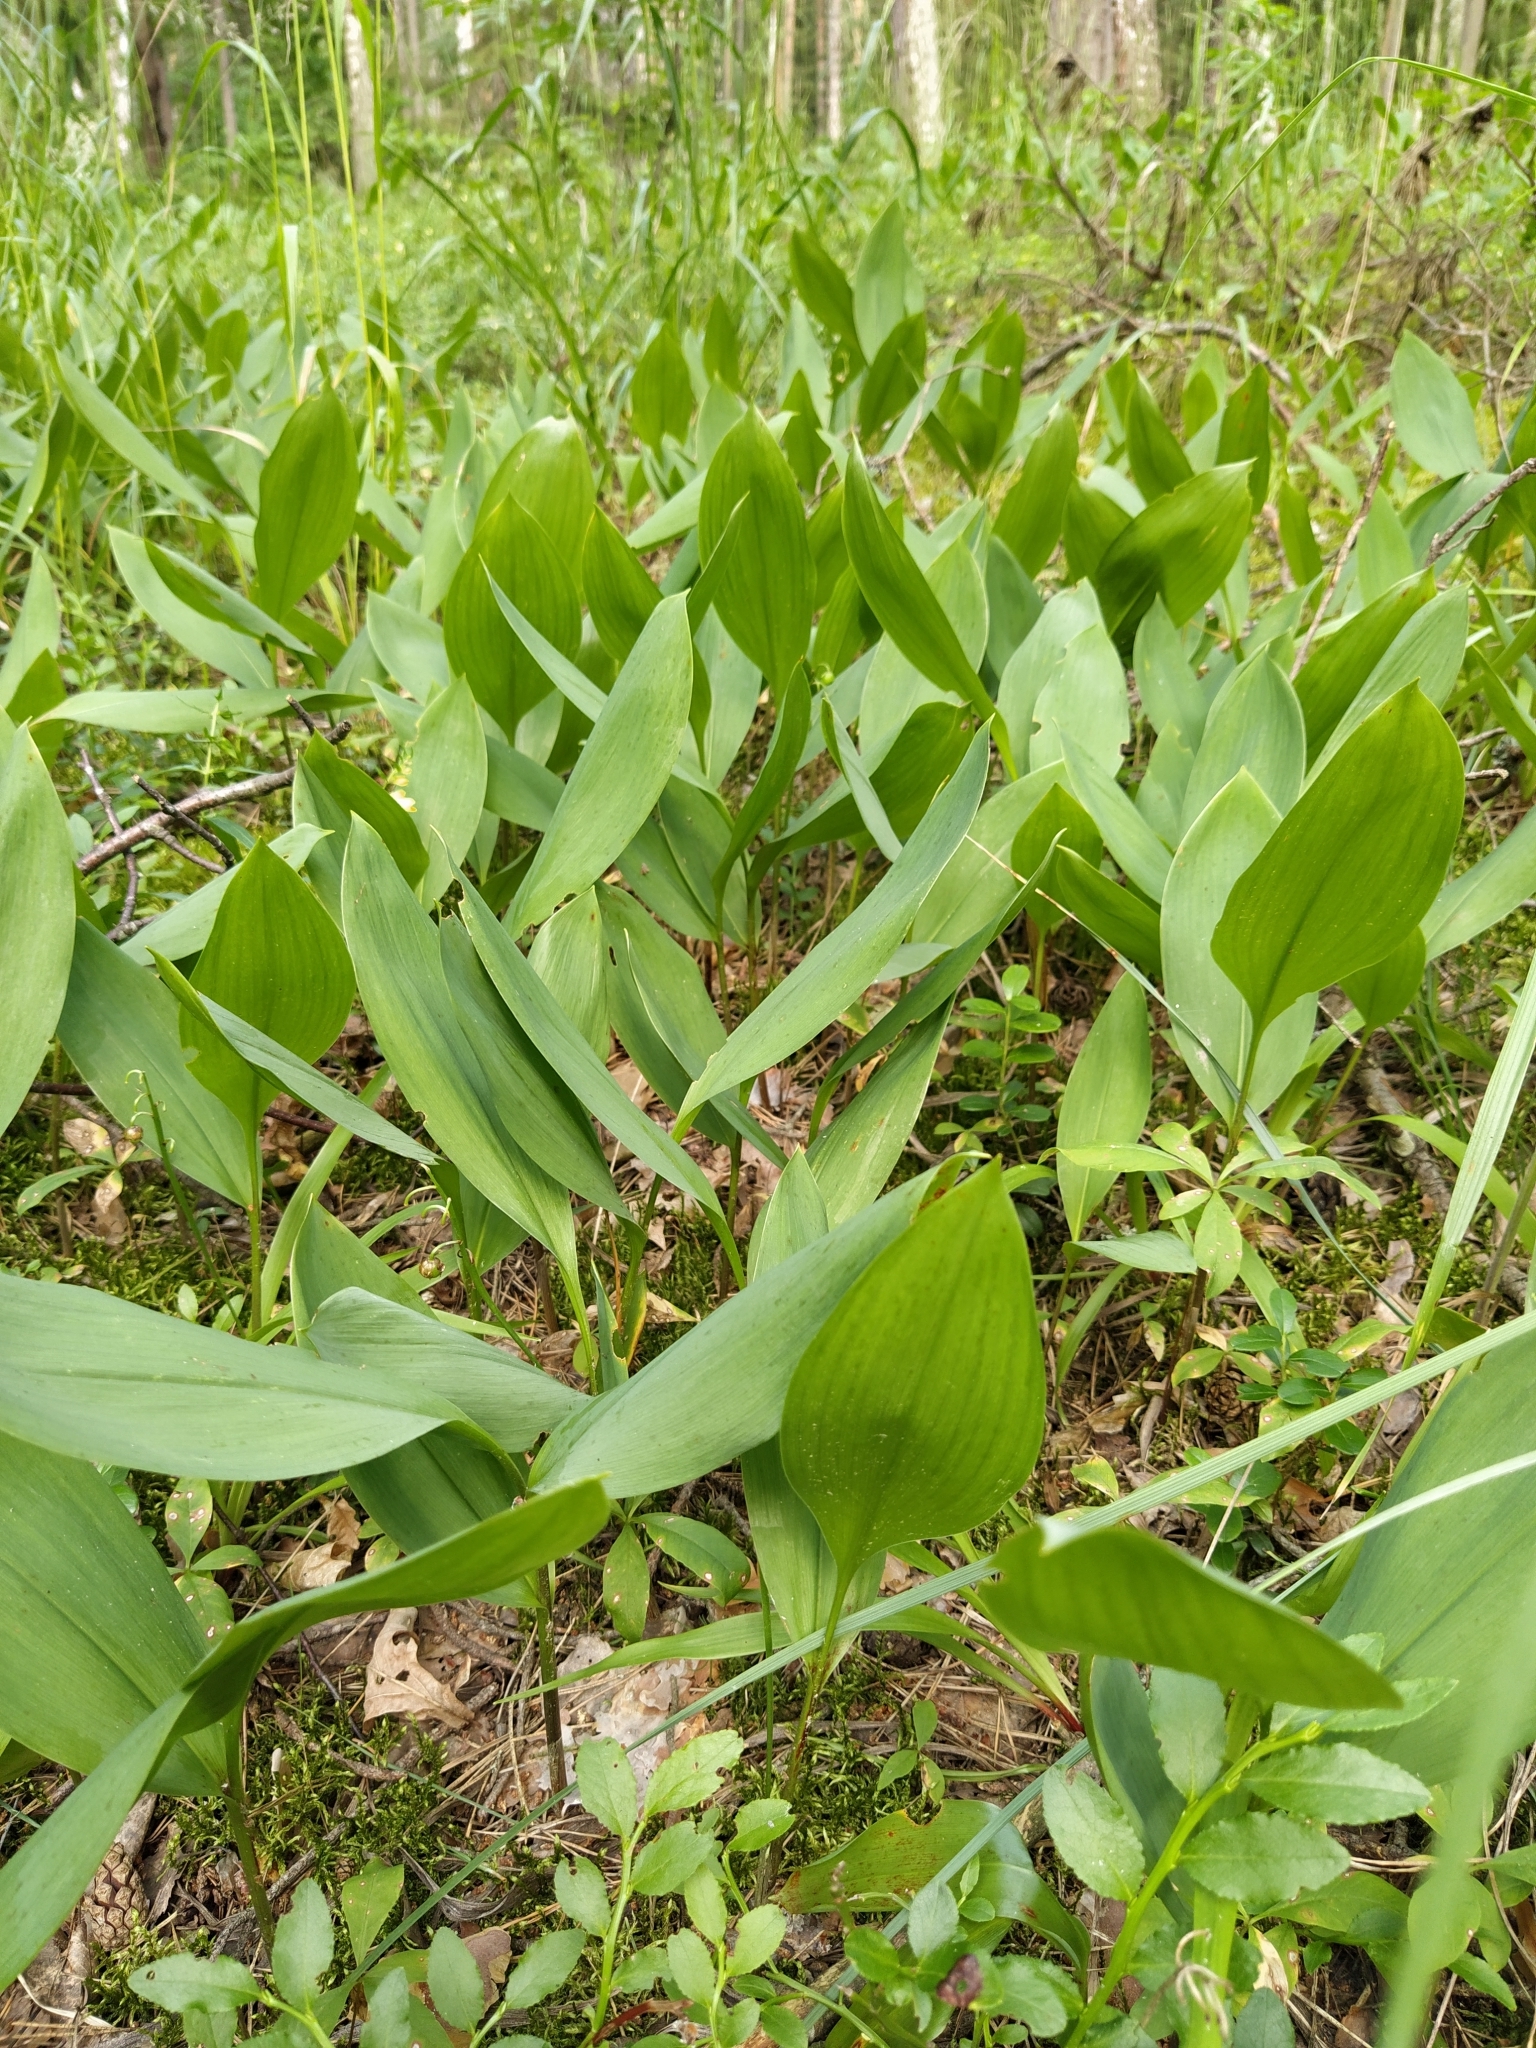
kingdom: Plantae
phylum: Tracheophyta
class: Liliopsida
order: Asparagales
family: Asparagaceae
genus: Convallaria
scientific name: Convallaria majalis
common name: Lily-of-the-valley
